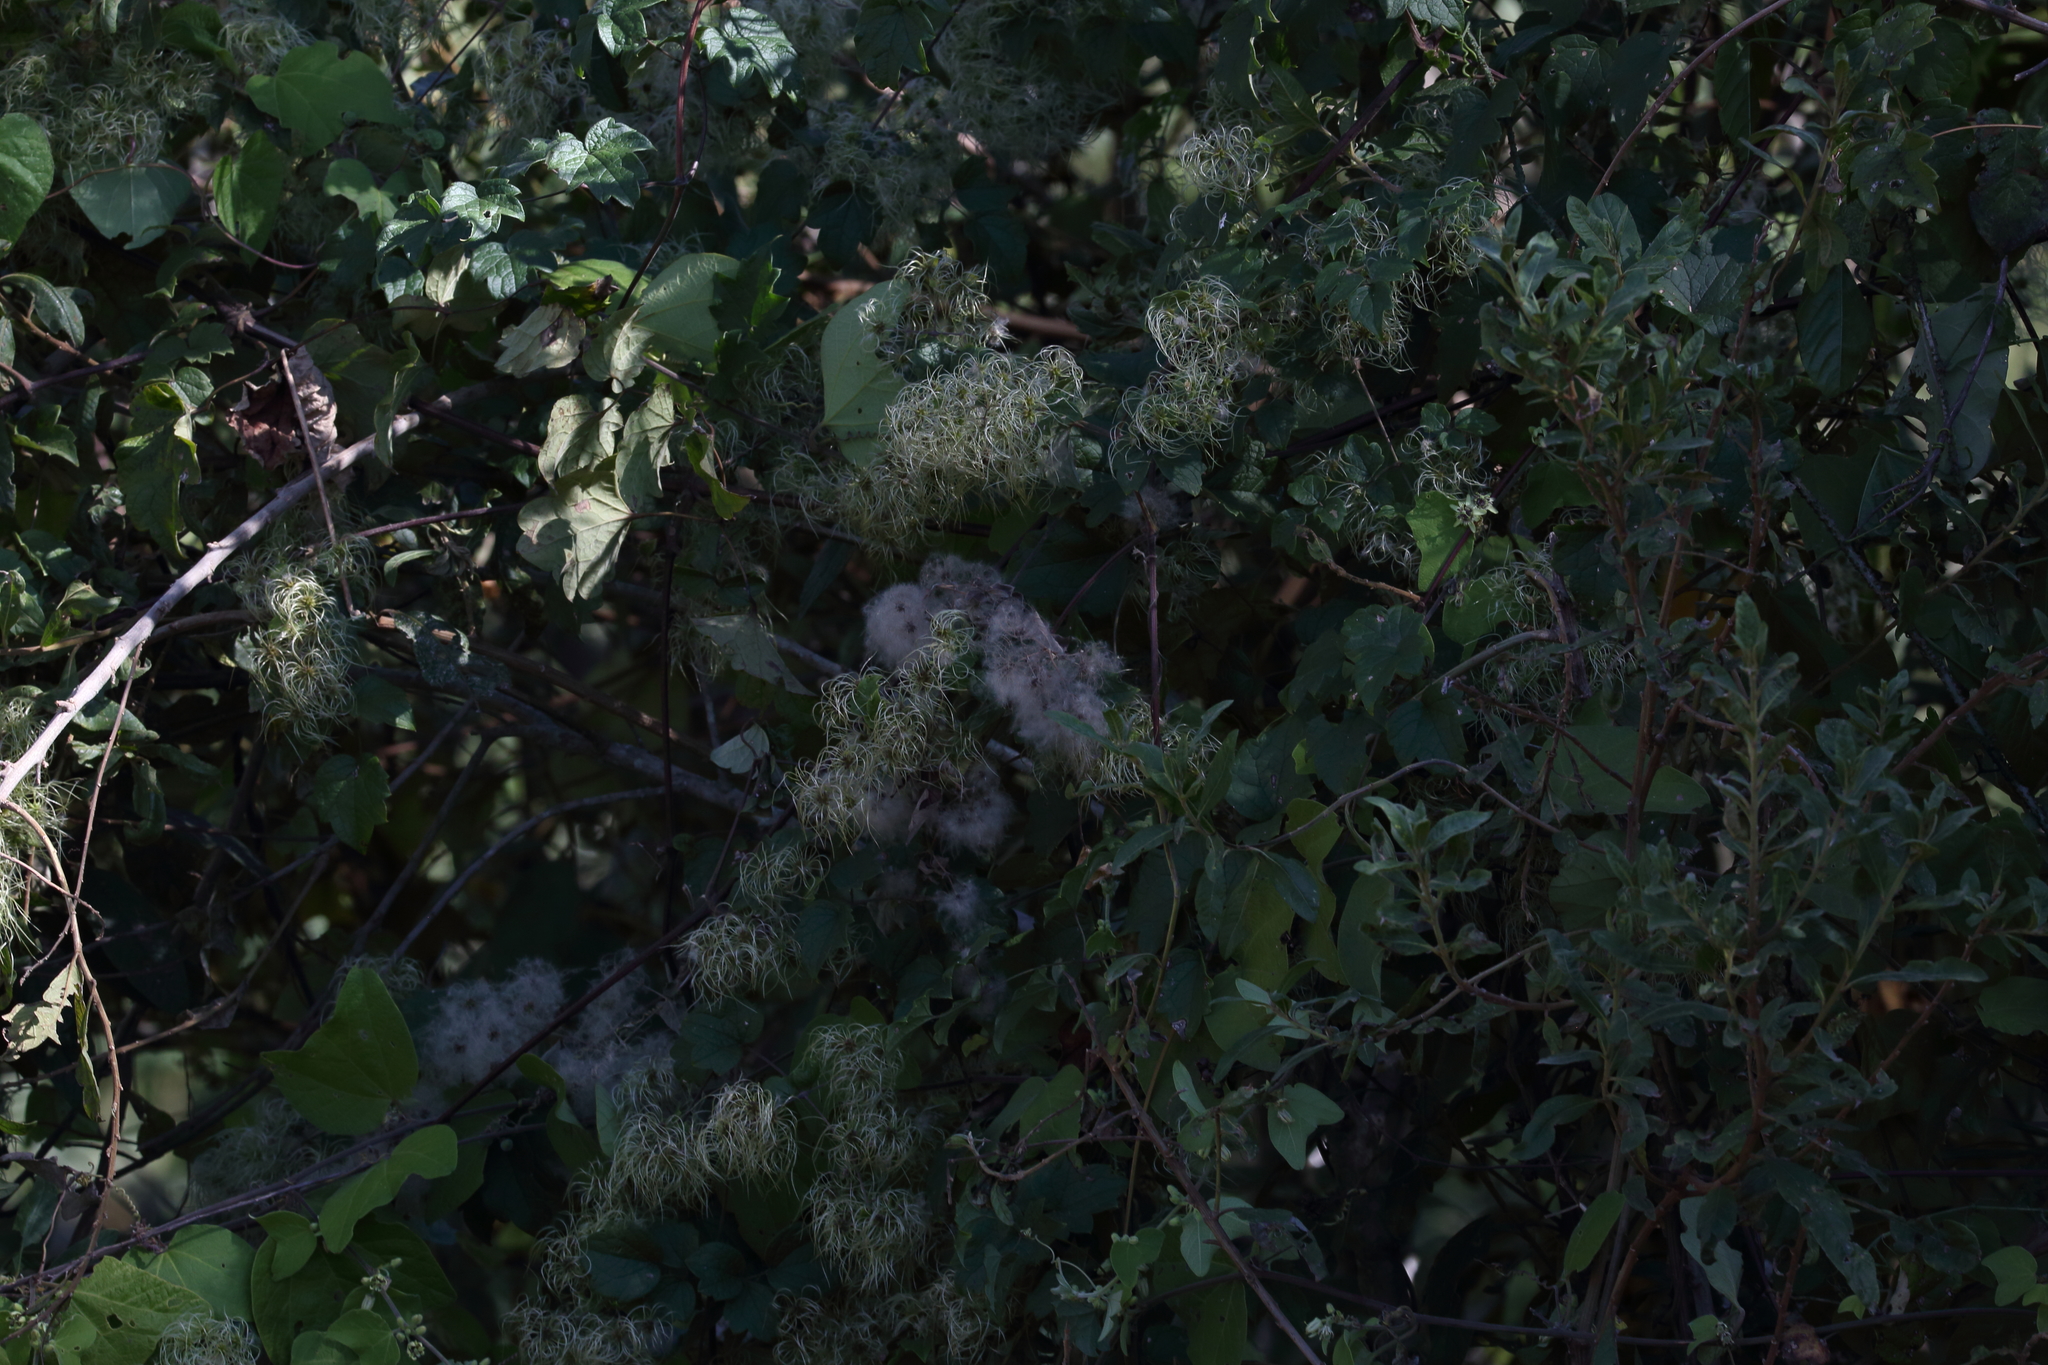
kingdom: Plantae
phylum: Tracheophyta
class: Magnoliopsida
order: Ranunculales
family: Ranunculaceae
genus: Clematis
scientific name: Clematis dioica
